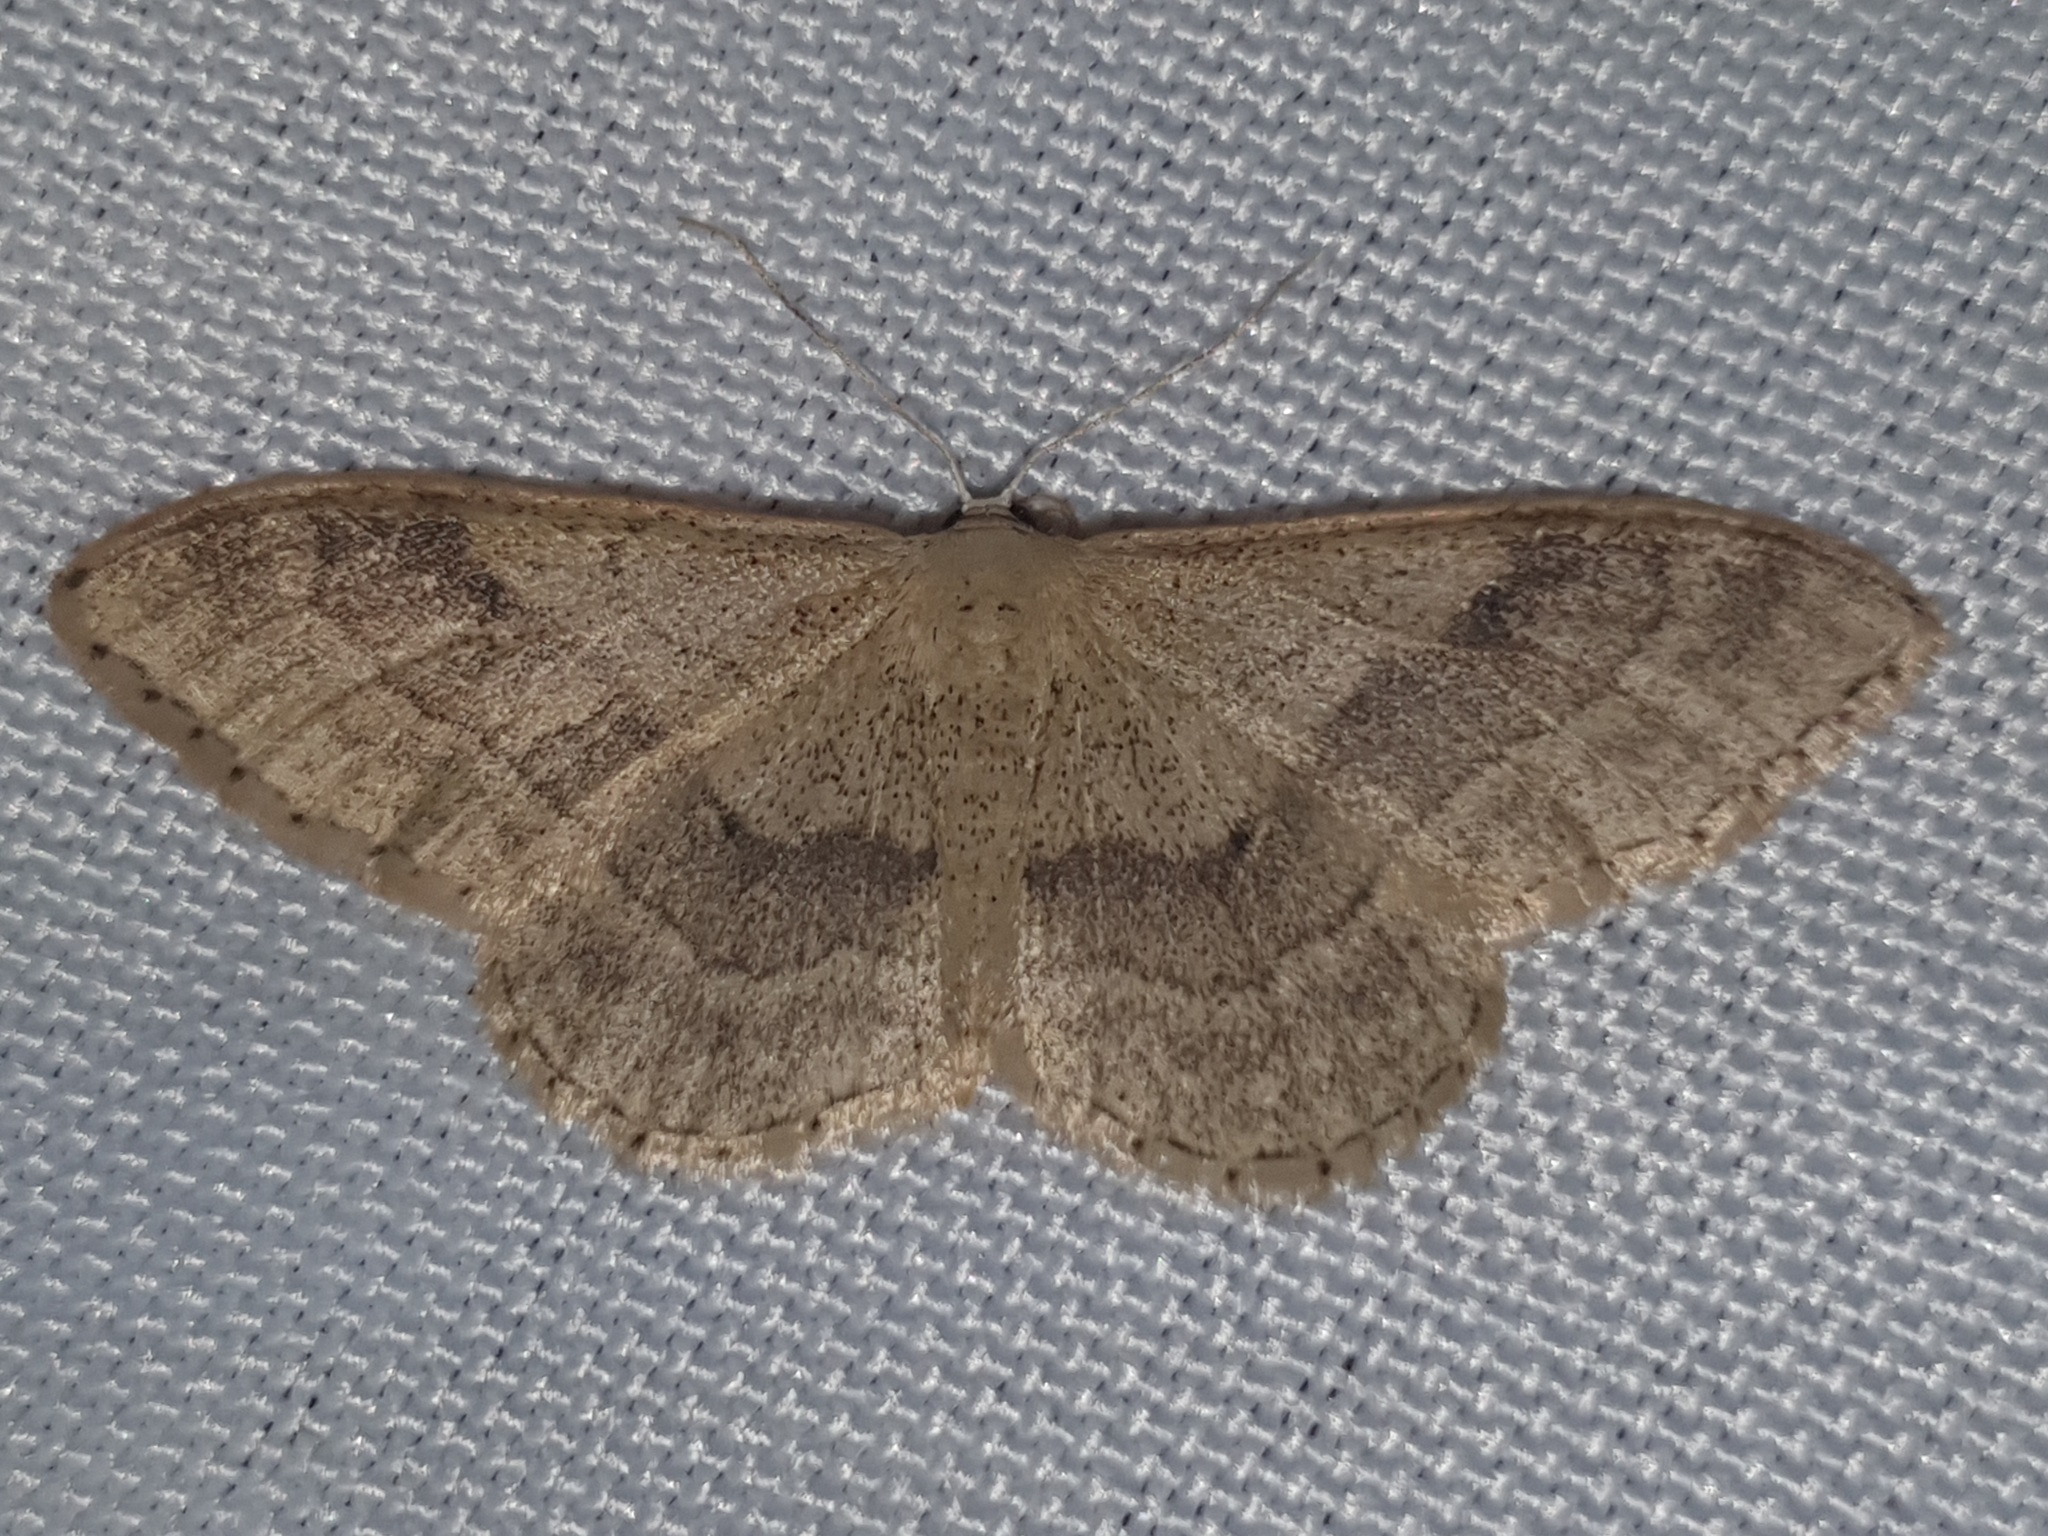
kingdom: Animalia
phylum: Arthropoda
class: Insecta
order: Lepidoptera
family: Geometridae
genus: Idaea
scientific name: Idaea aversata
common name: Riband wave
